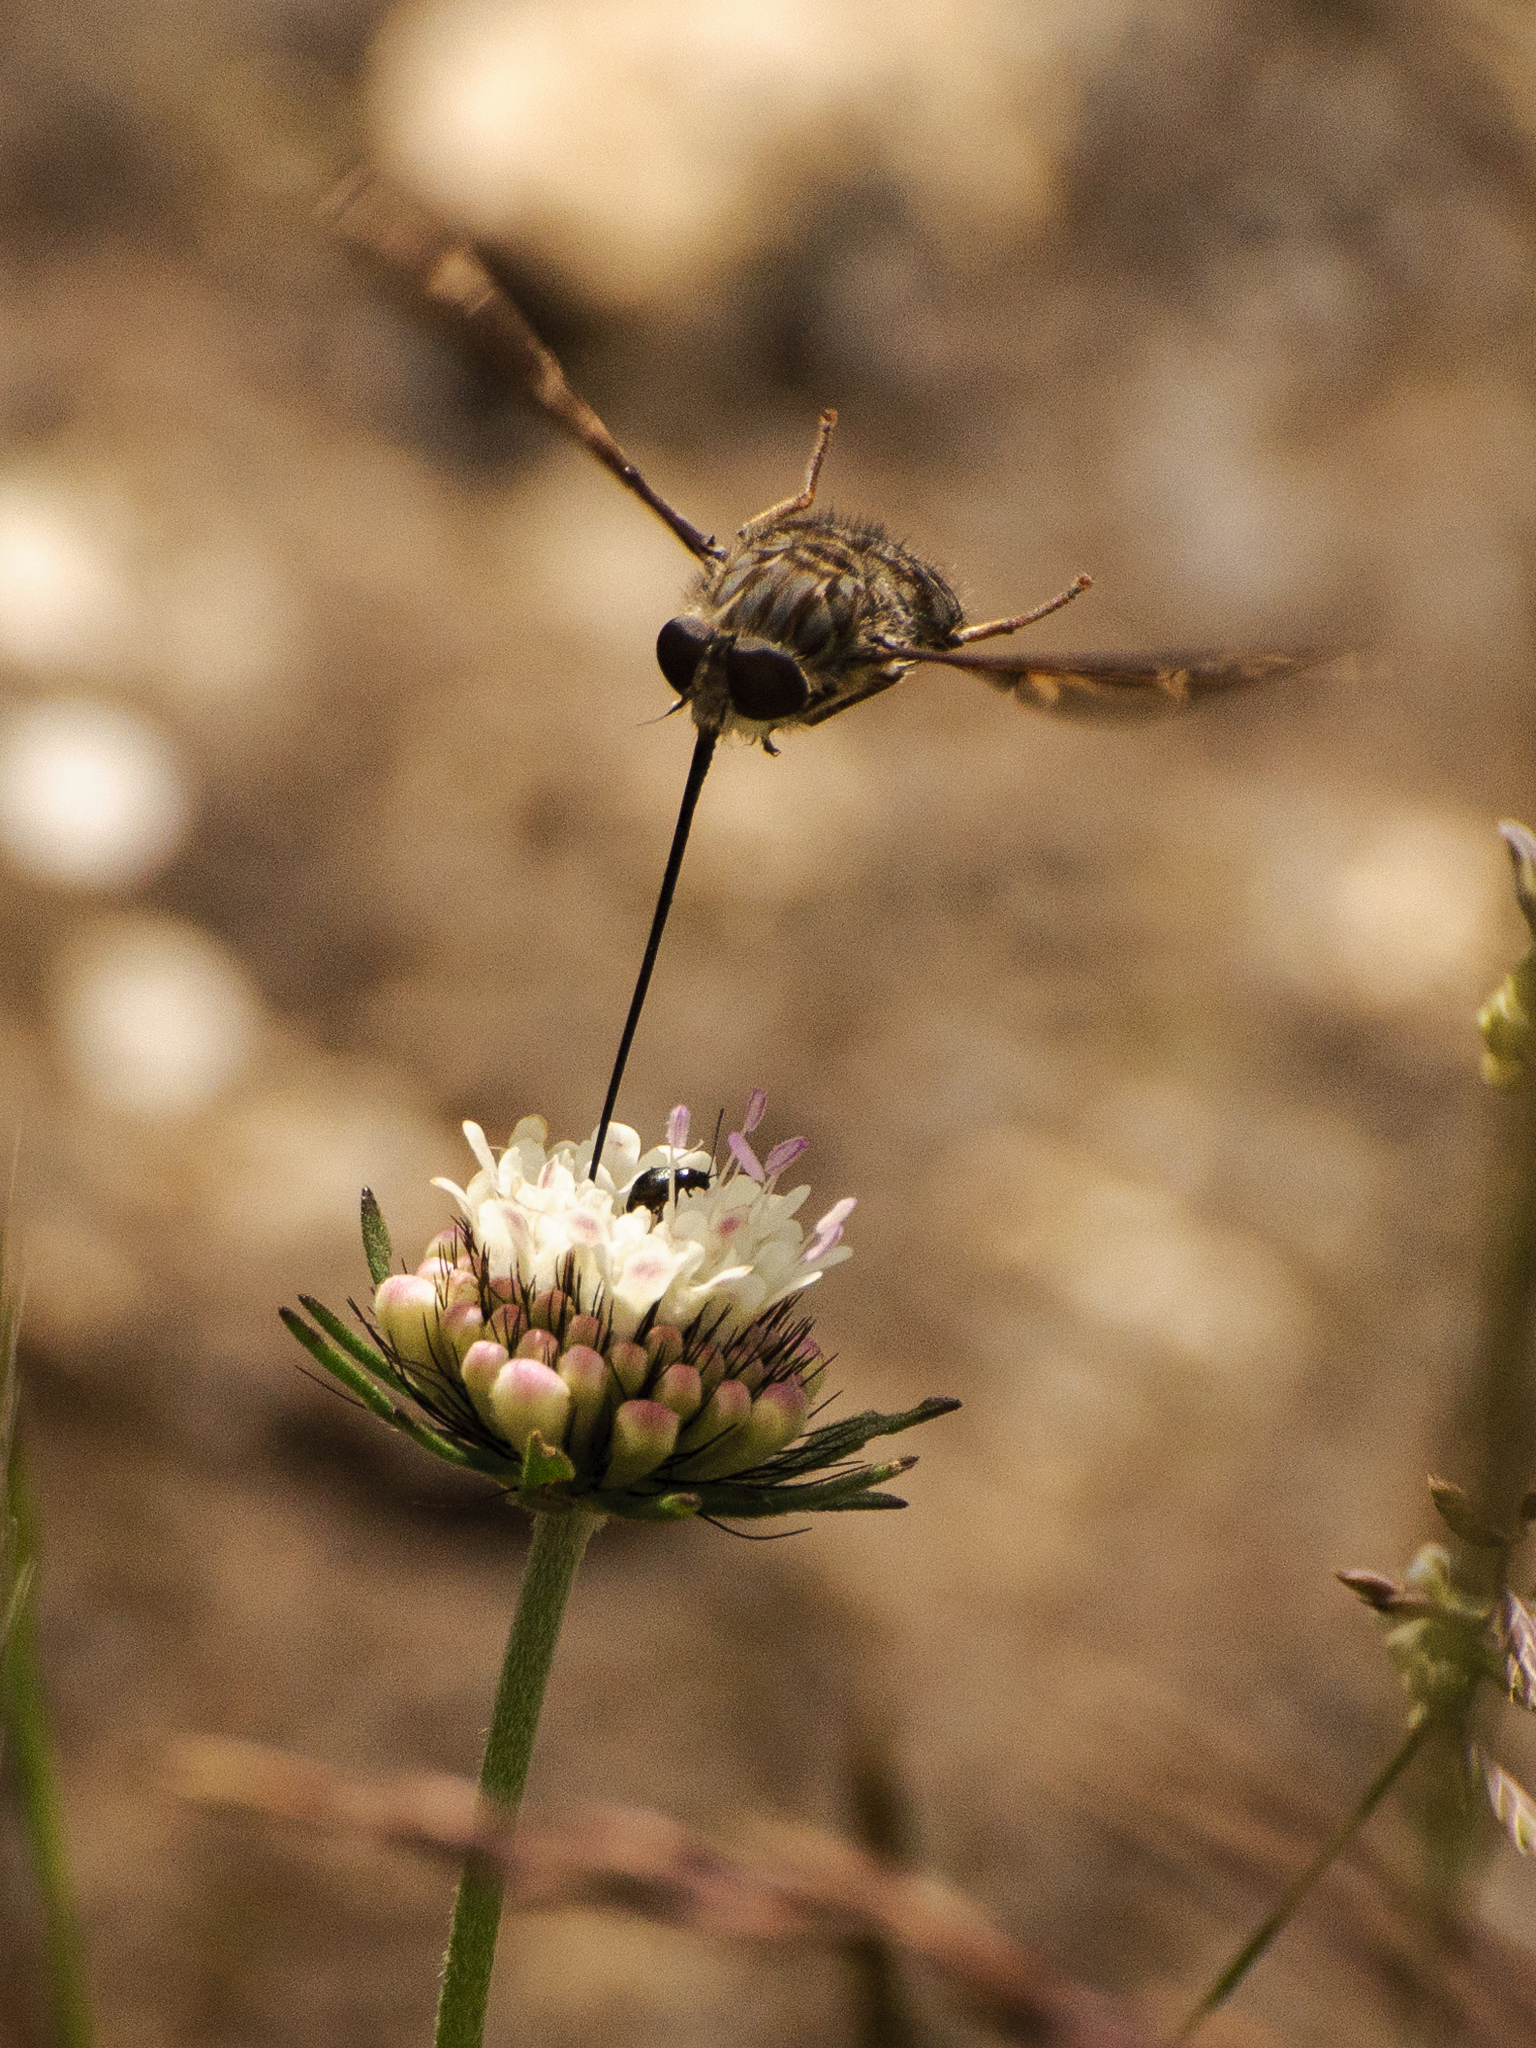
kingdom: Animalia
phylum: Arthropoda
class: Insecta
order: Diptera
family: Nemestrinidae
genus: Prosoeca
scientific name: Prosoeca ganglbaueri
